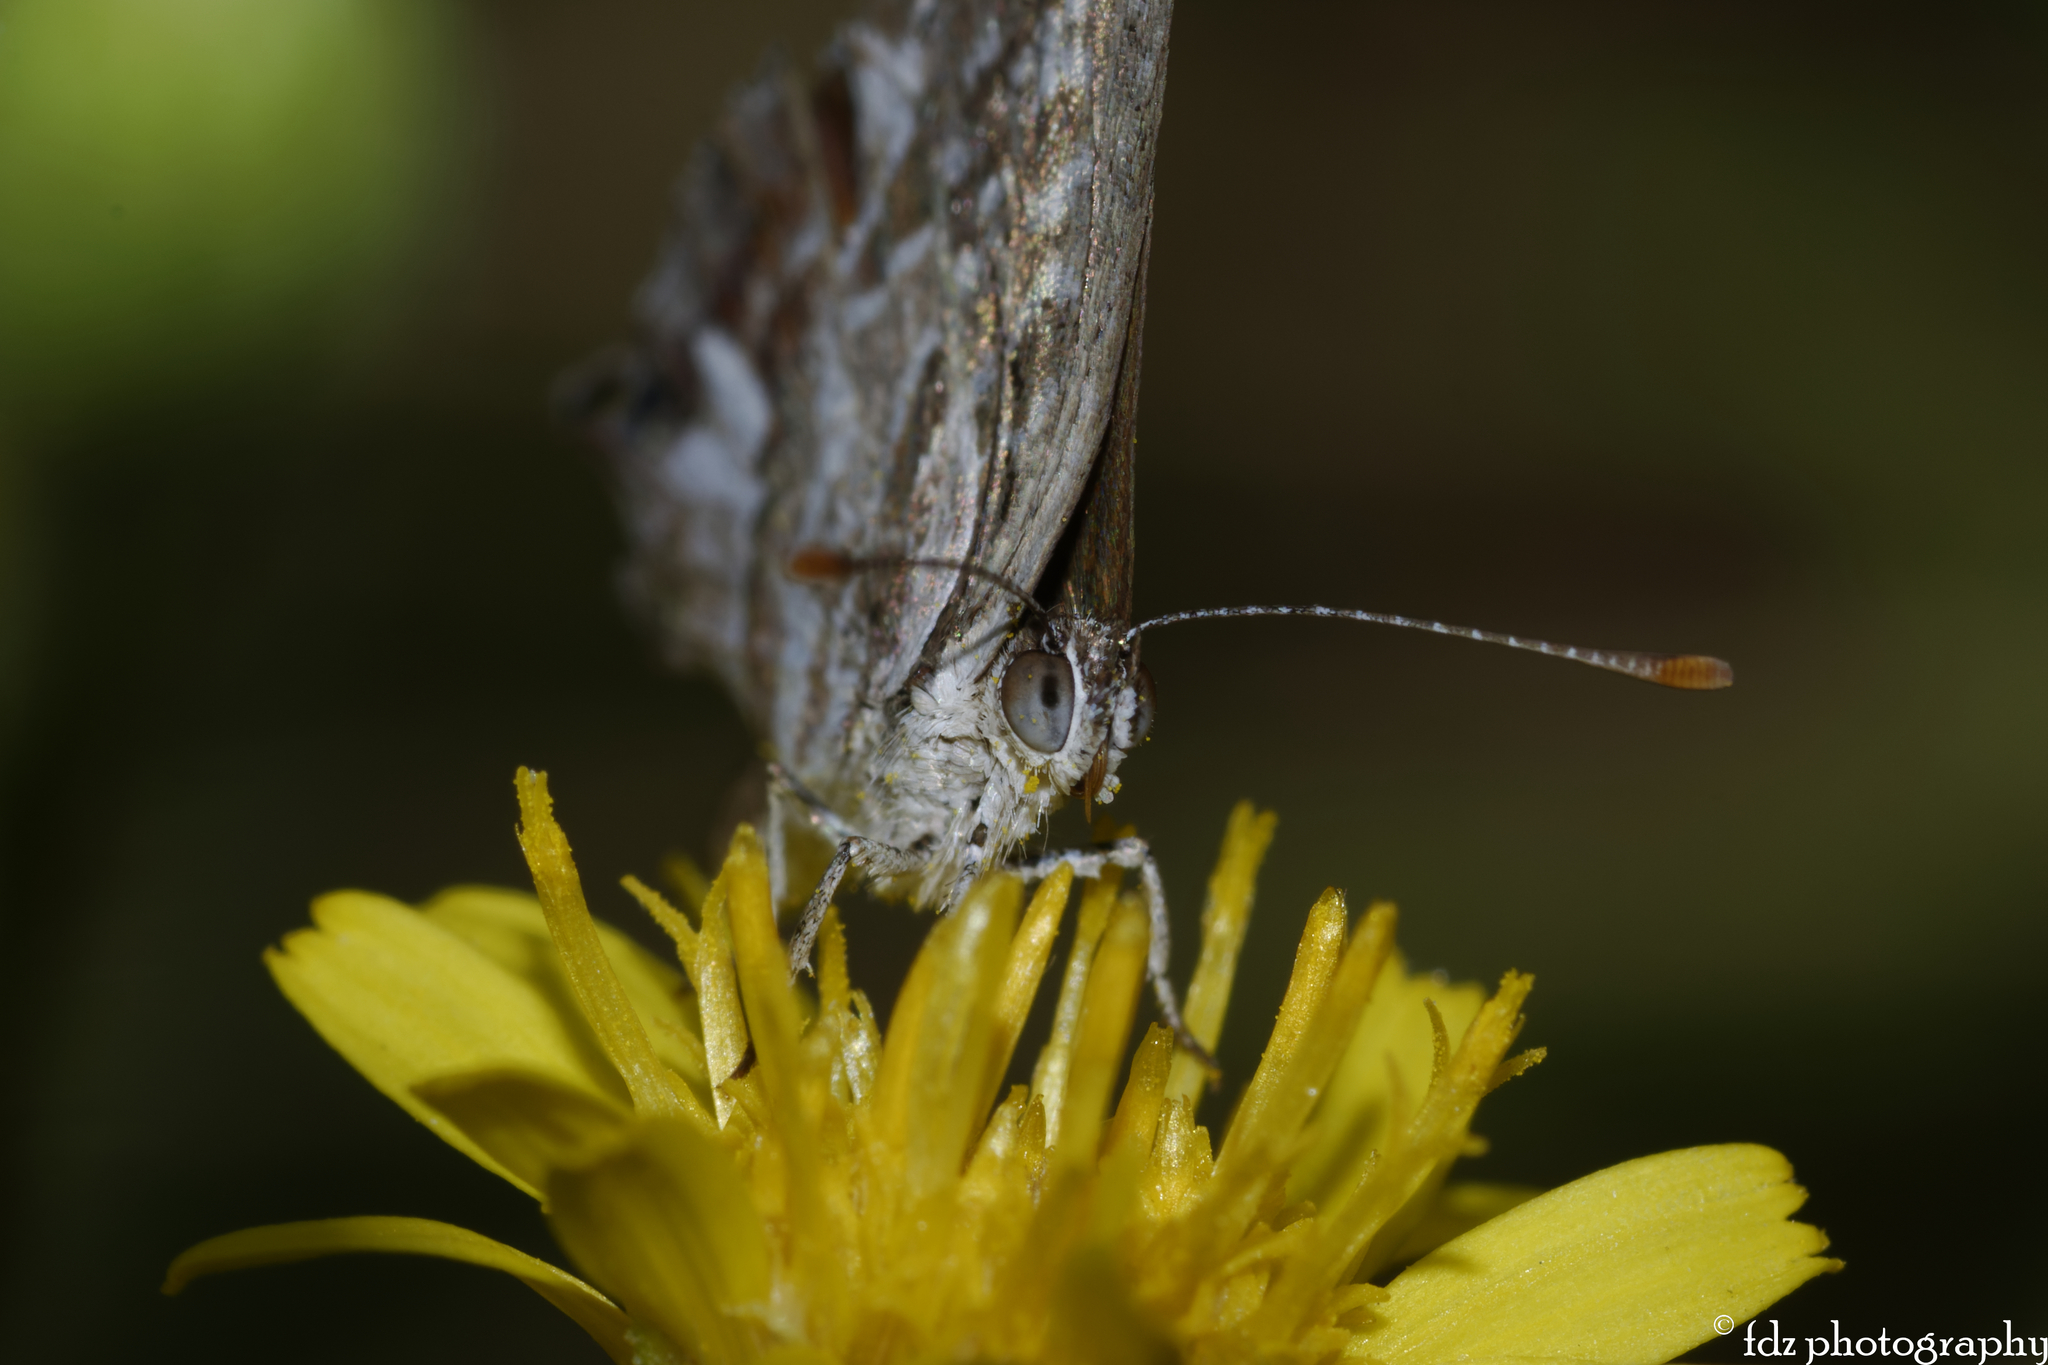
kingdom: Animalia
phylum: Arthropoda
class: Insecta
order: Lepidoptera
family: Lycaenidae
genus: Cacyreus
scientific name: Cacyreus marshalli
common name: Geranium bronze
